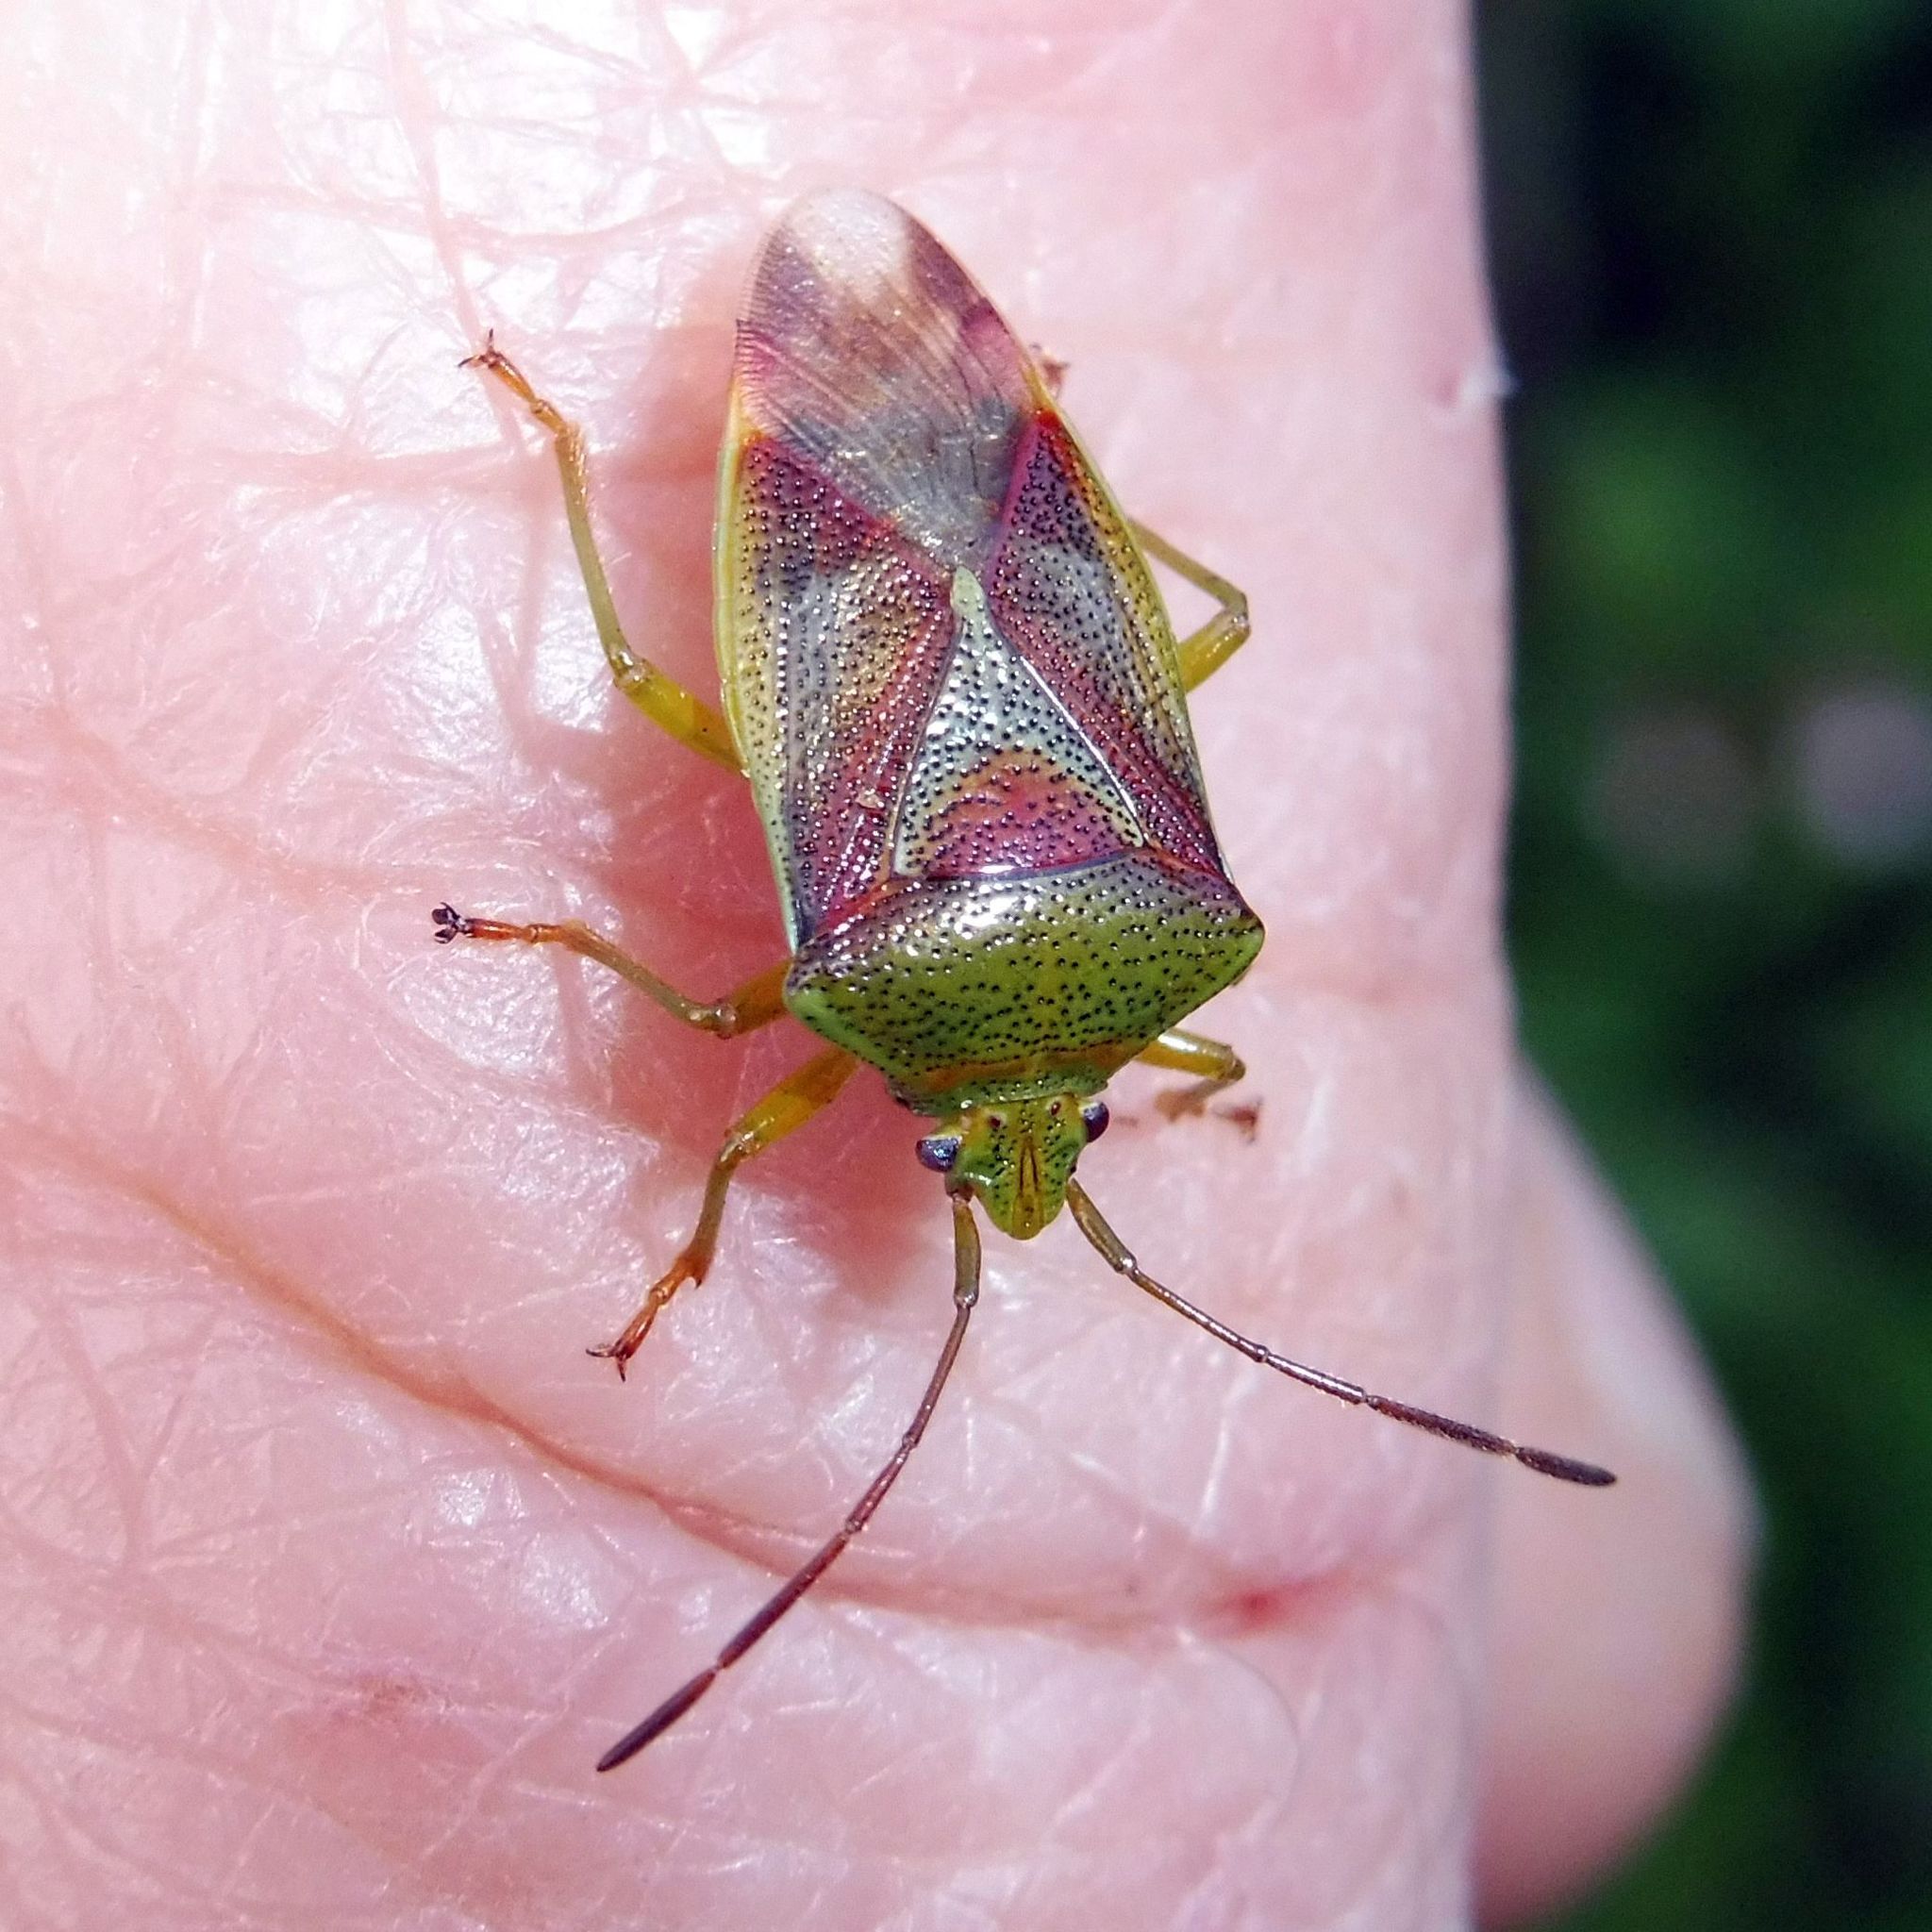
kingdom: Animalia
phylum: Arthropoda
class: Insecta
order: Hemiptera
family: Acanthosomatidae
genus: Elasmostethus
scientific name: Elasmostethus interstinctus
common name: Birch shieldbug
